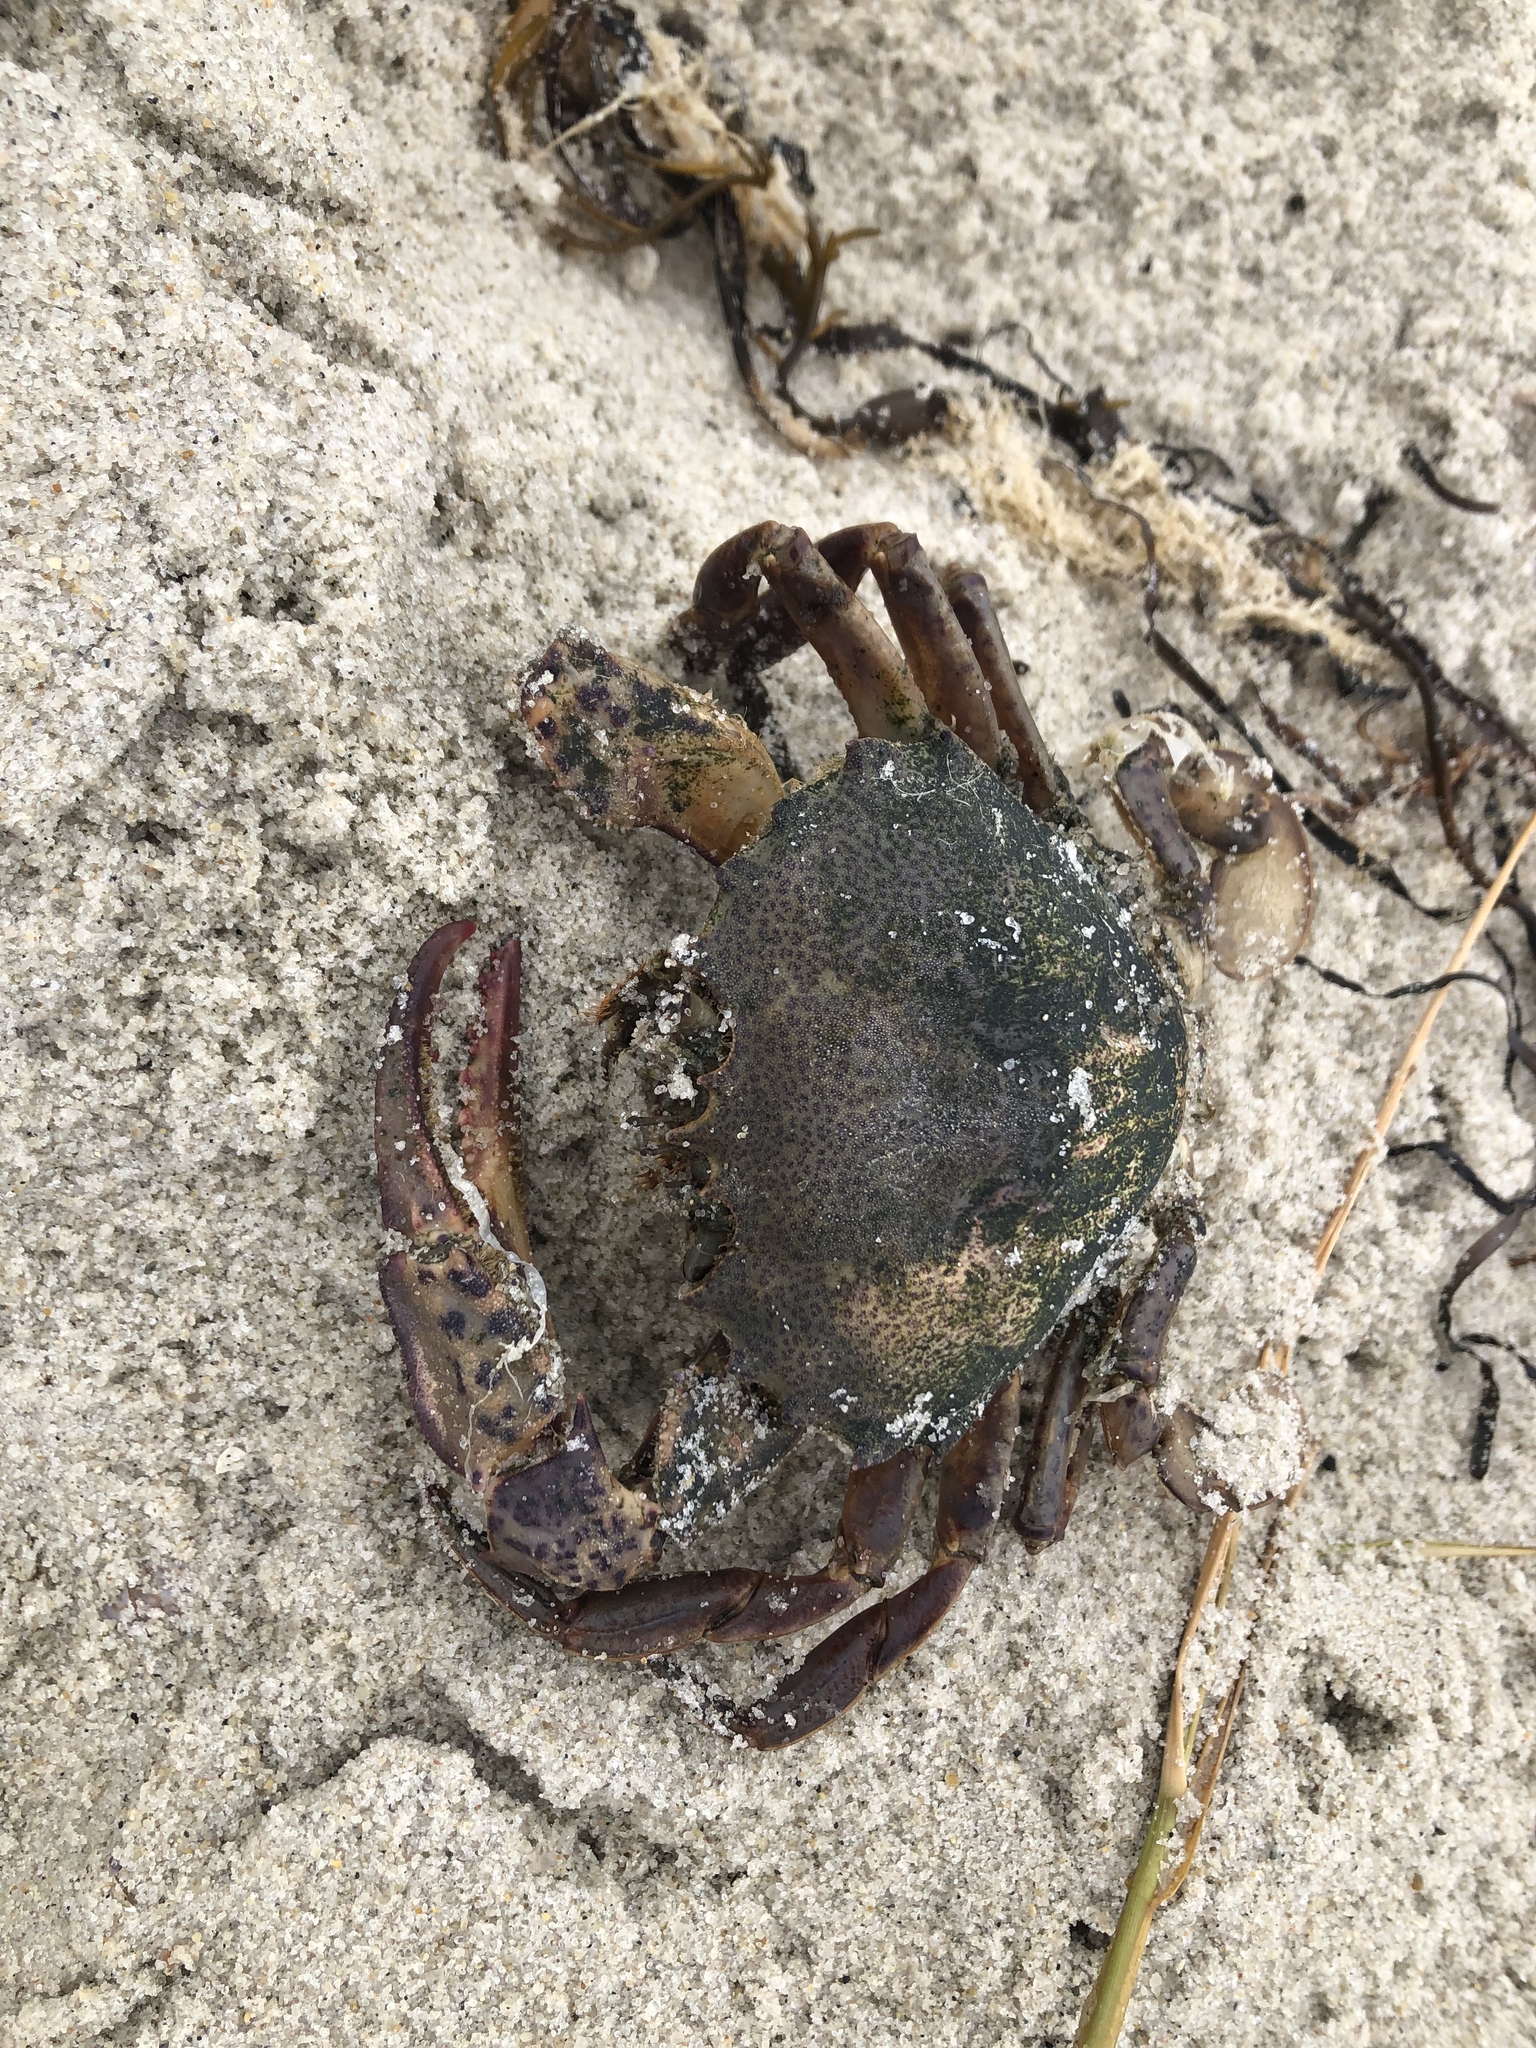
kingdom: Animalia
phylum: Arthropoda
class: Malacostraca
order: Decapoda
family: Ovalipidae
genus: Ovalipes
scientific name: Ovalipes ocellatus
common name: Lady crab
